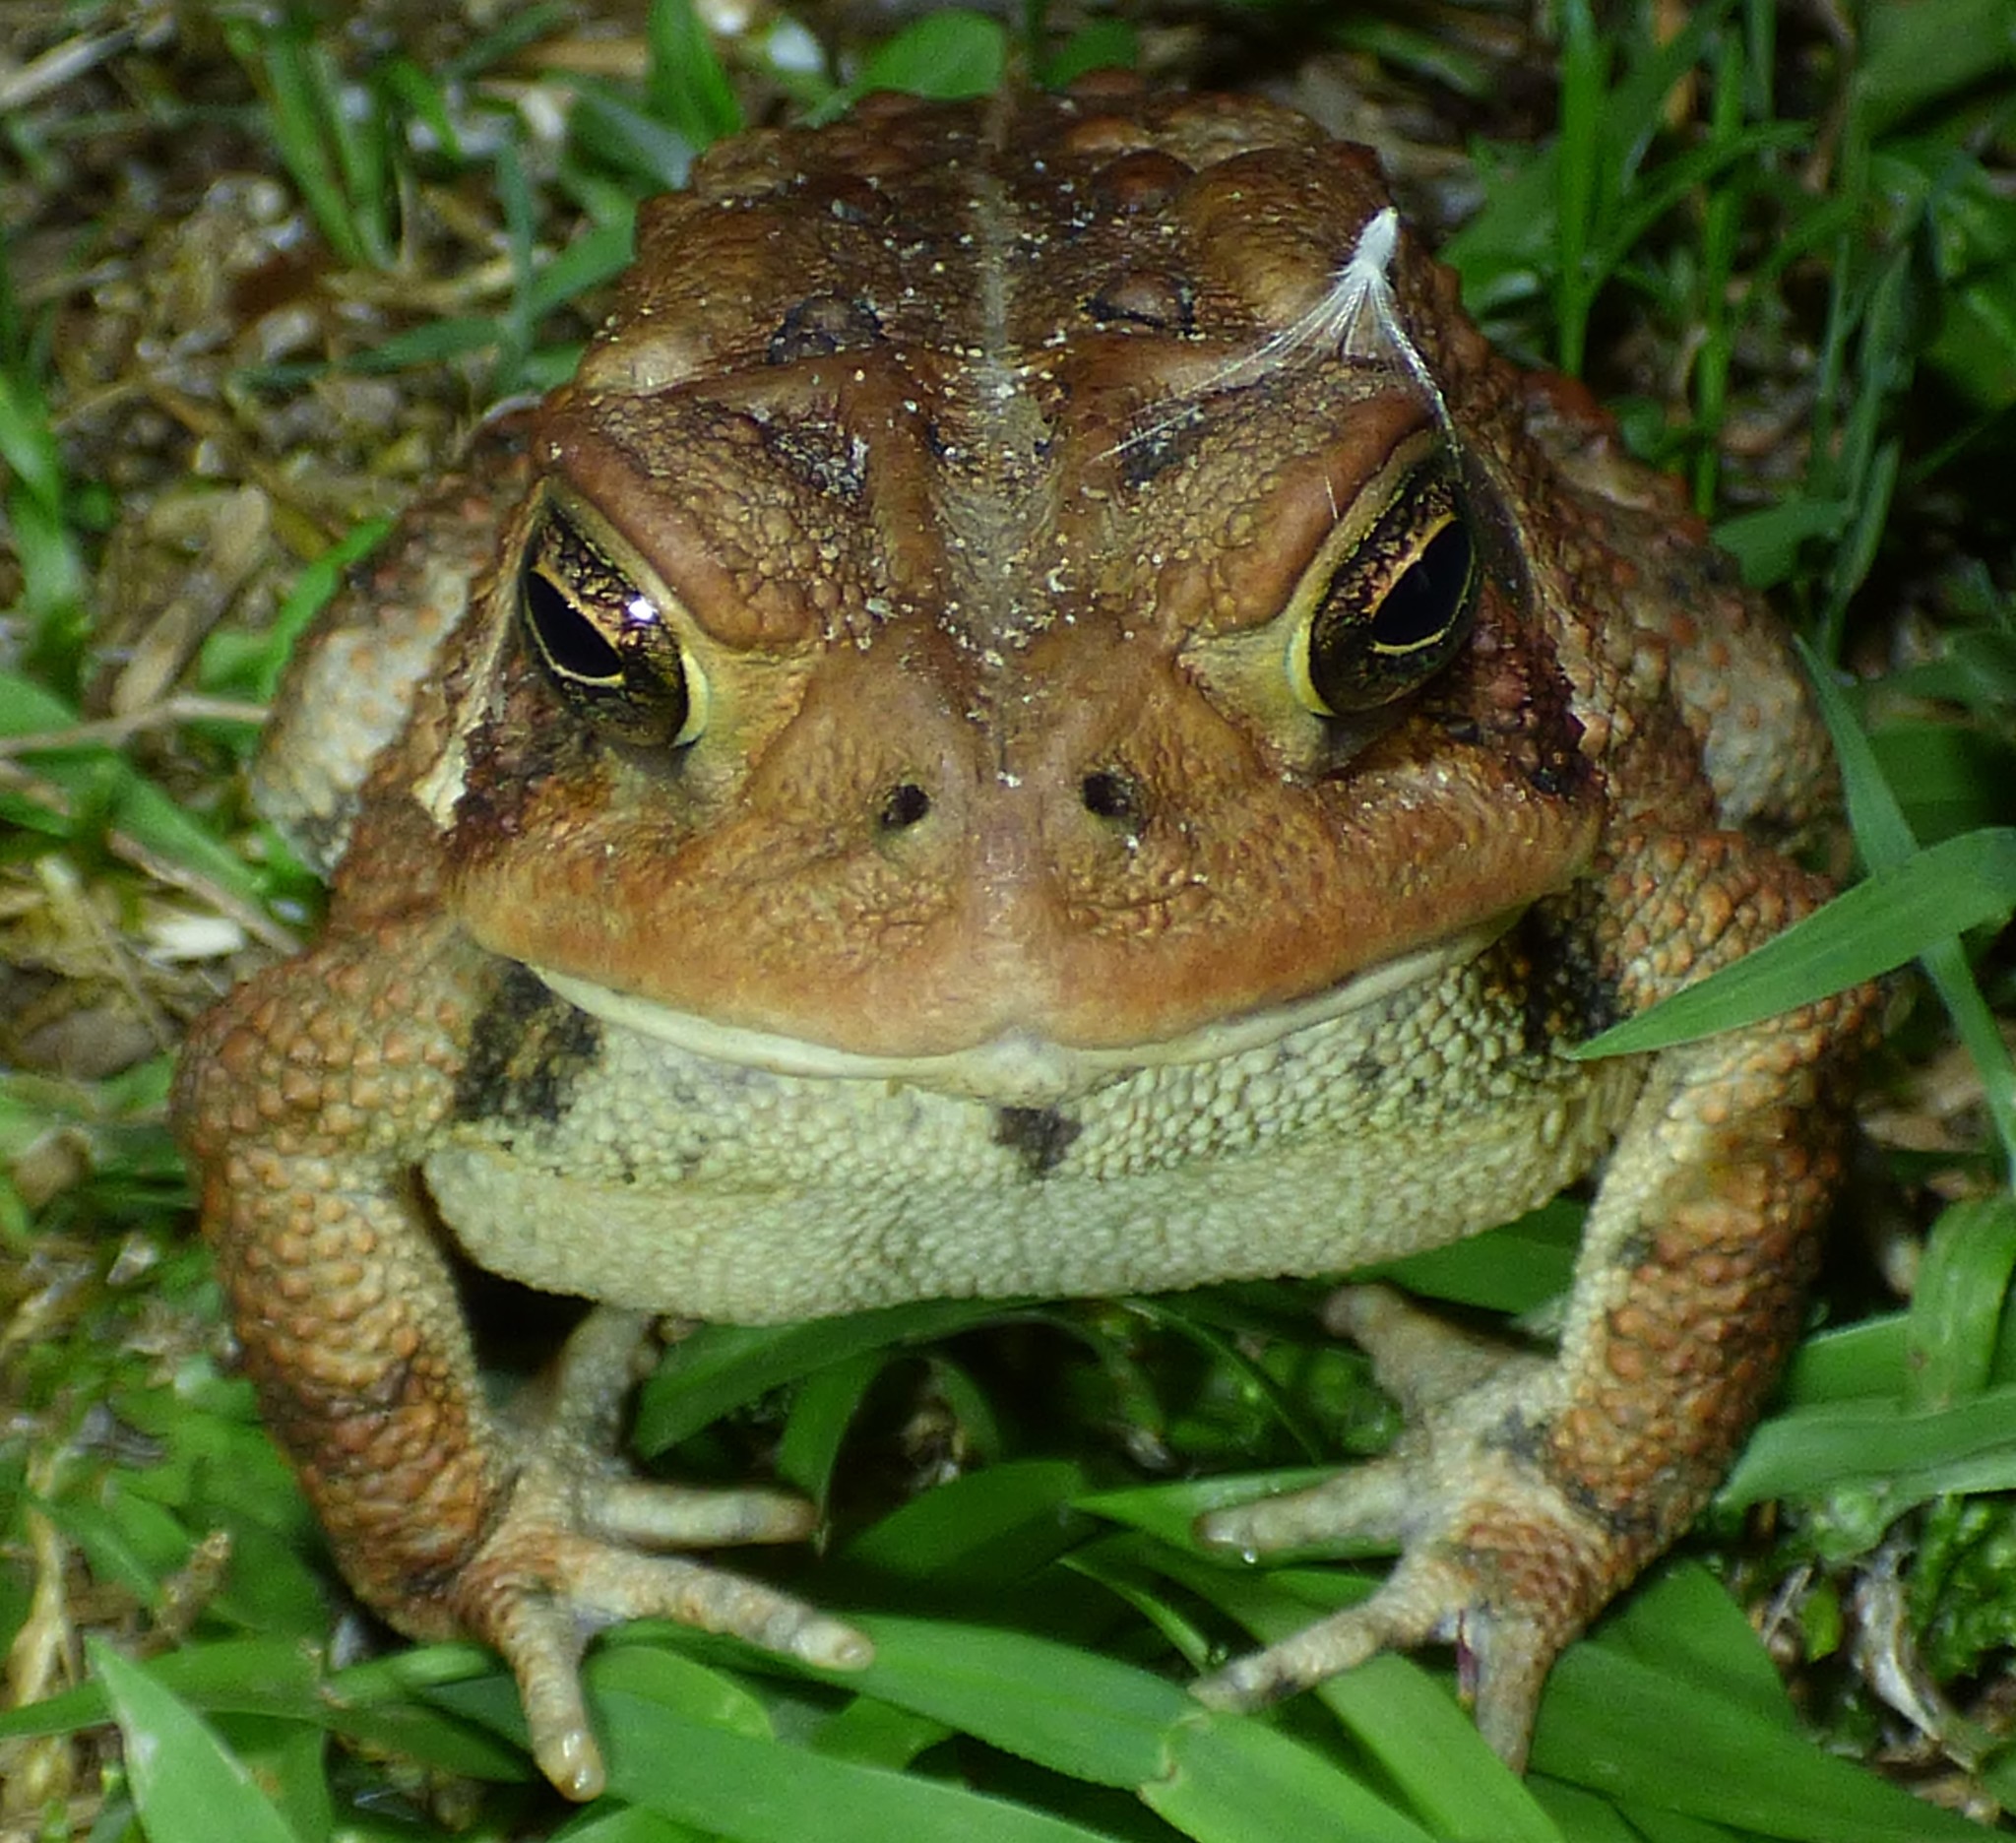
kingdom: Animalia
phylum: Chordata
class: Amphibia
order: Anura
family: Bufonidae
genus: Anaxyrus
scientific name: Anaxyrus americanus
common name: American toad
